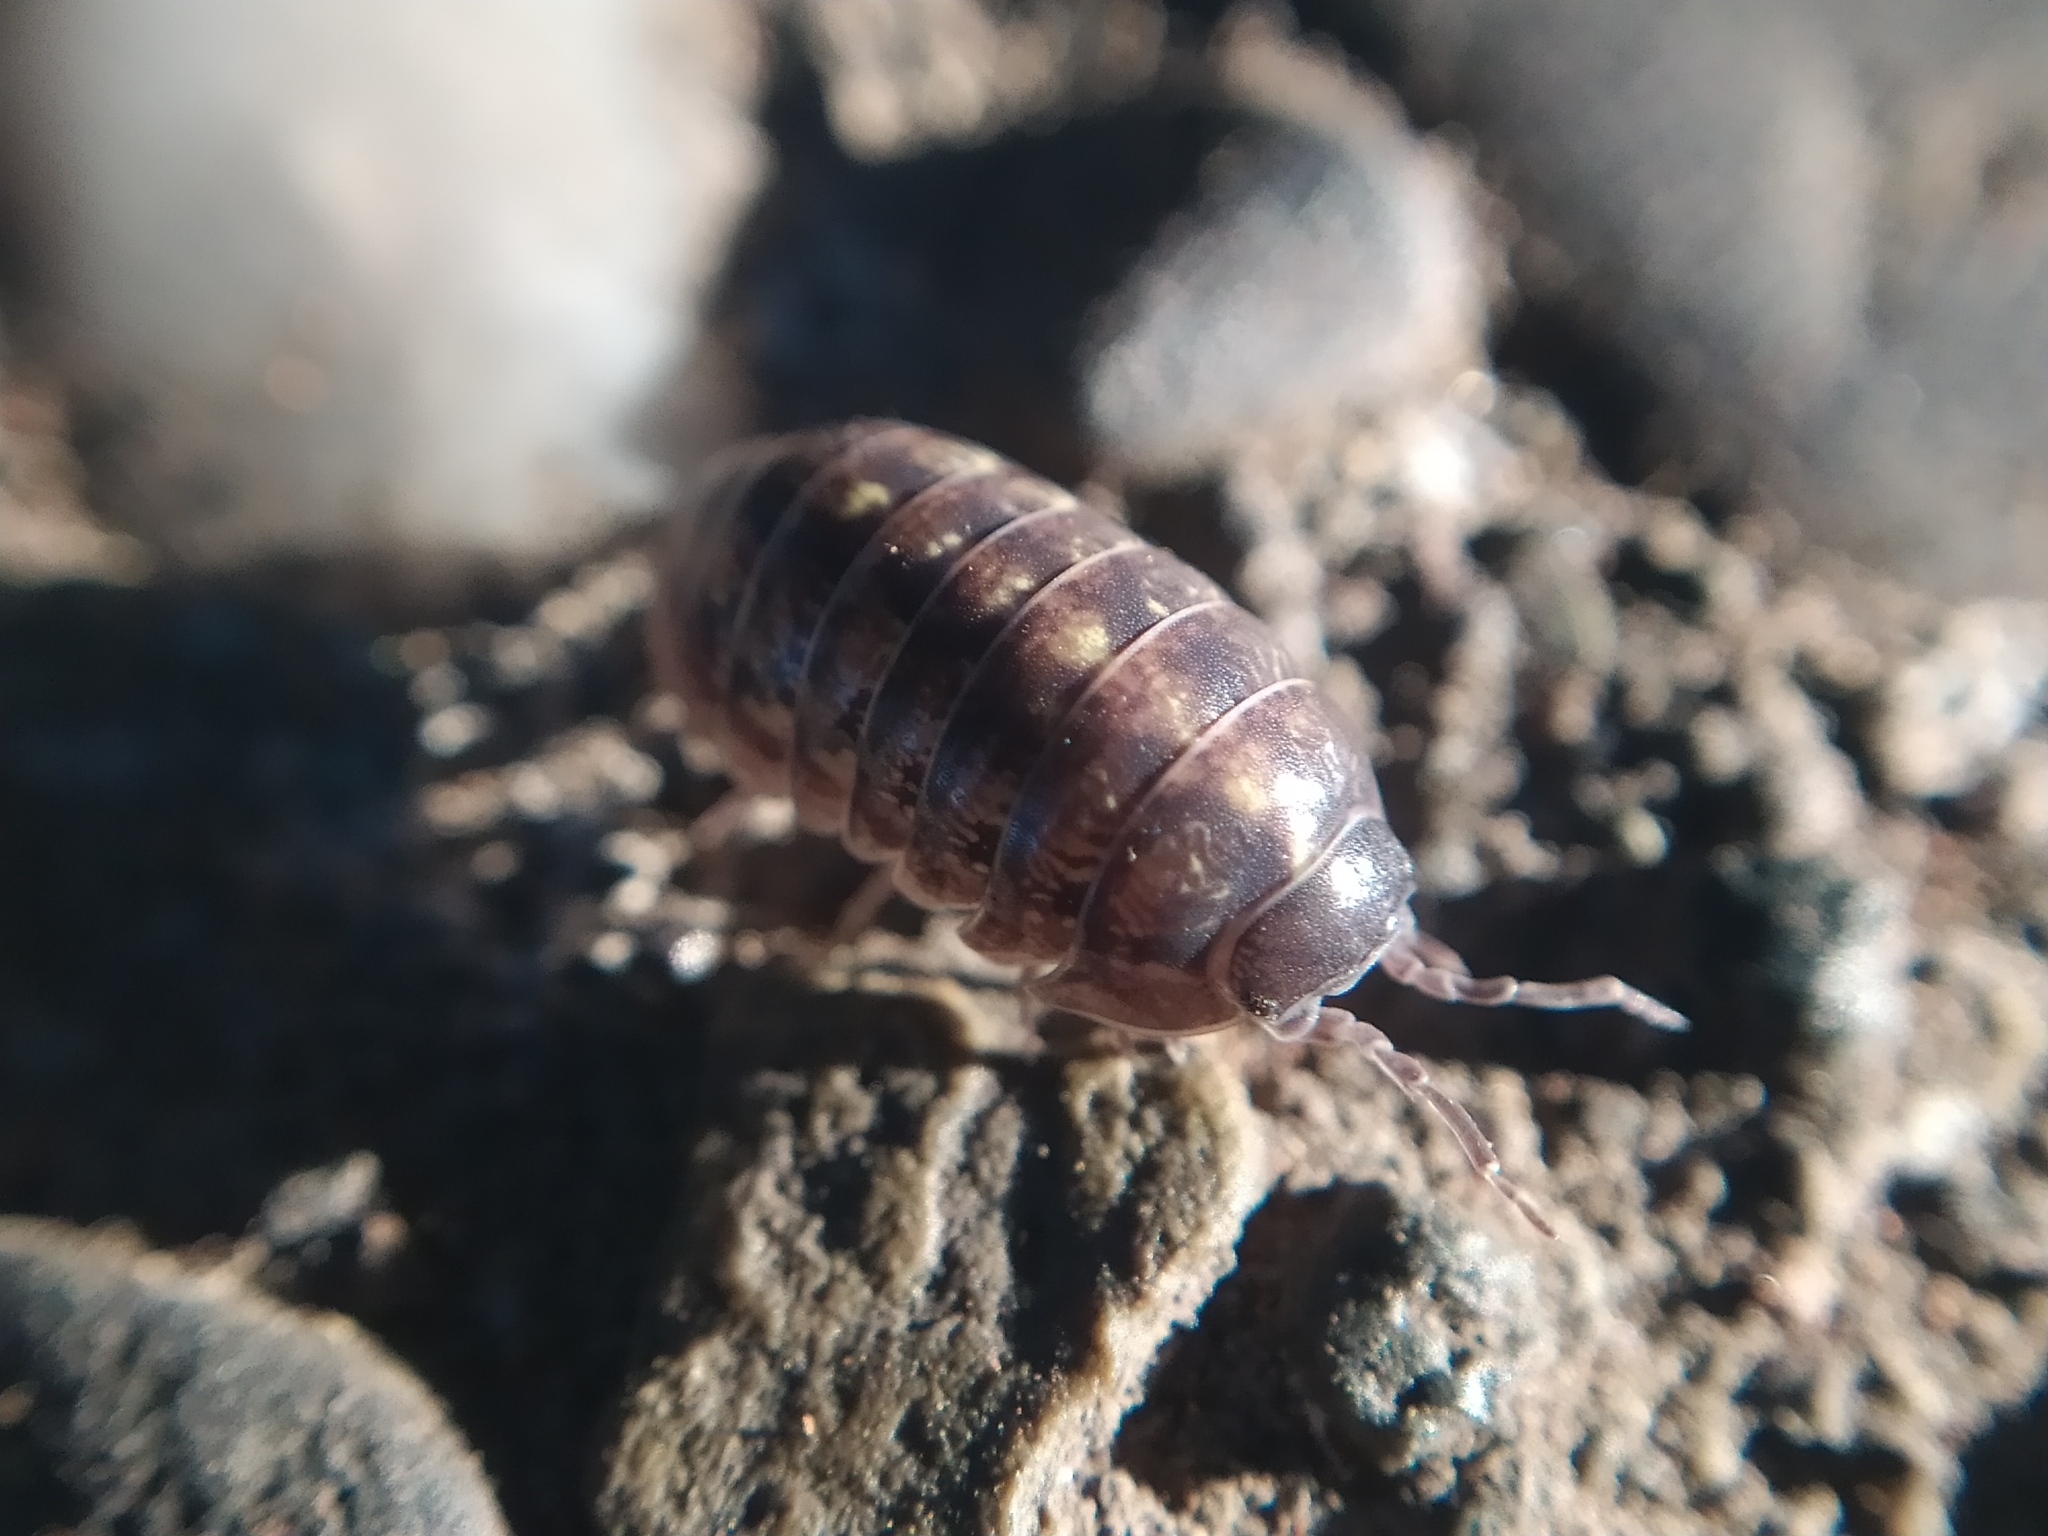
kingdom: Animalia
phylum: Arthropoda
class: Malacostraca
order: Isopoda
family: Armadillidiidae
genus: Armadillidium
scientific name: Armadillidium vulgare
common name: Common pill woodlouse
